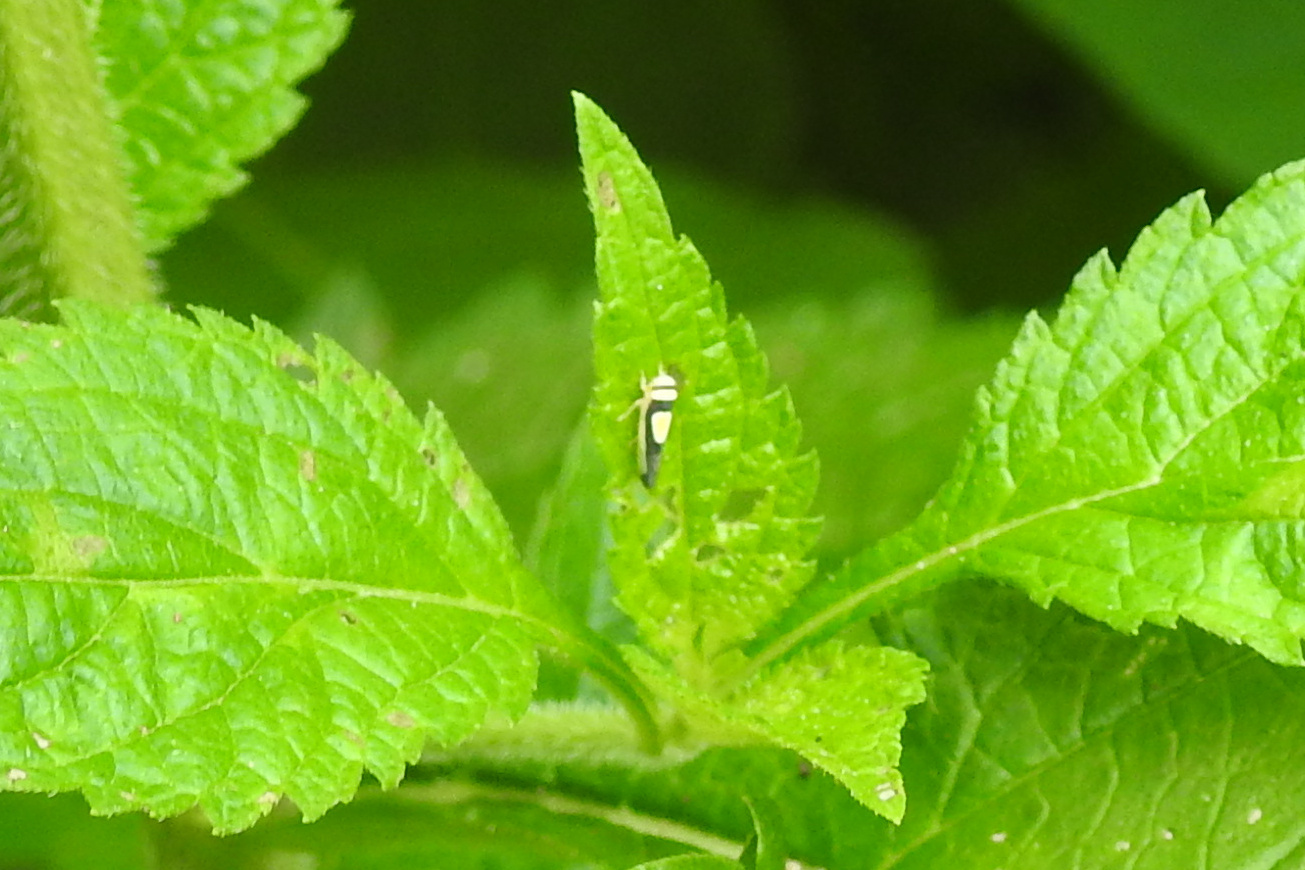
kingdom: Animalia
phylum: Arthropoda
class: Insecta
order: Hemiptera
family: Cicadellidae
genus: Colladonus
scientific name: Colladonus clitellarius
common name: The saddleback leafhopper
